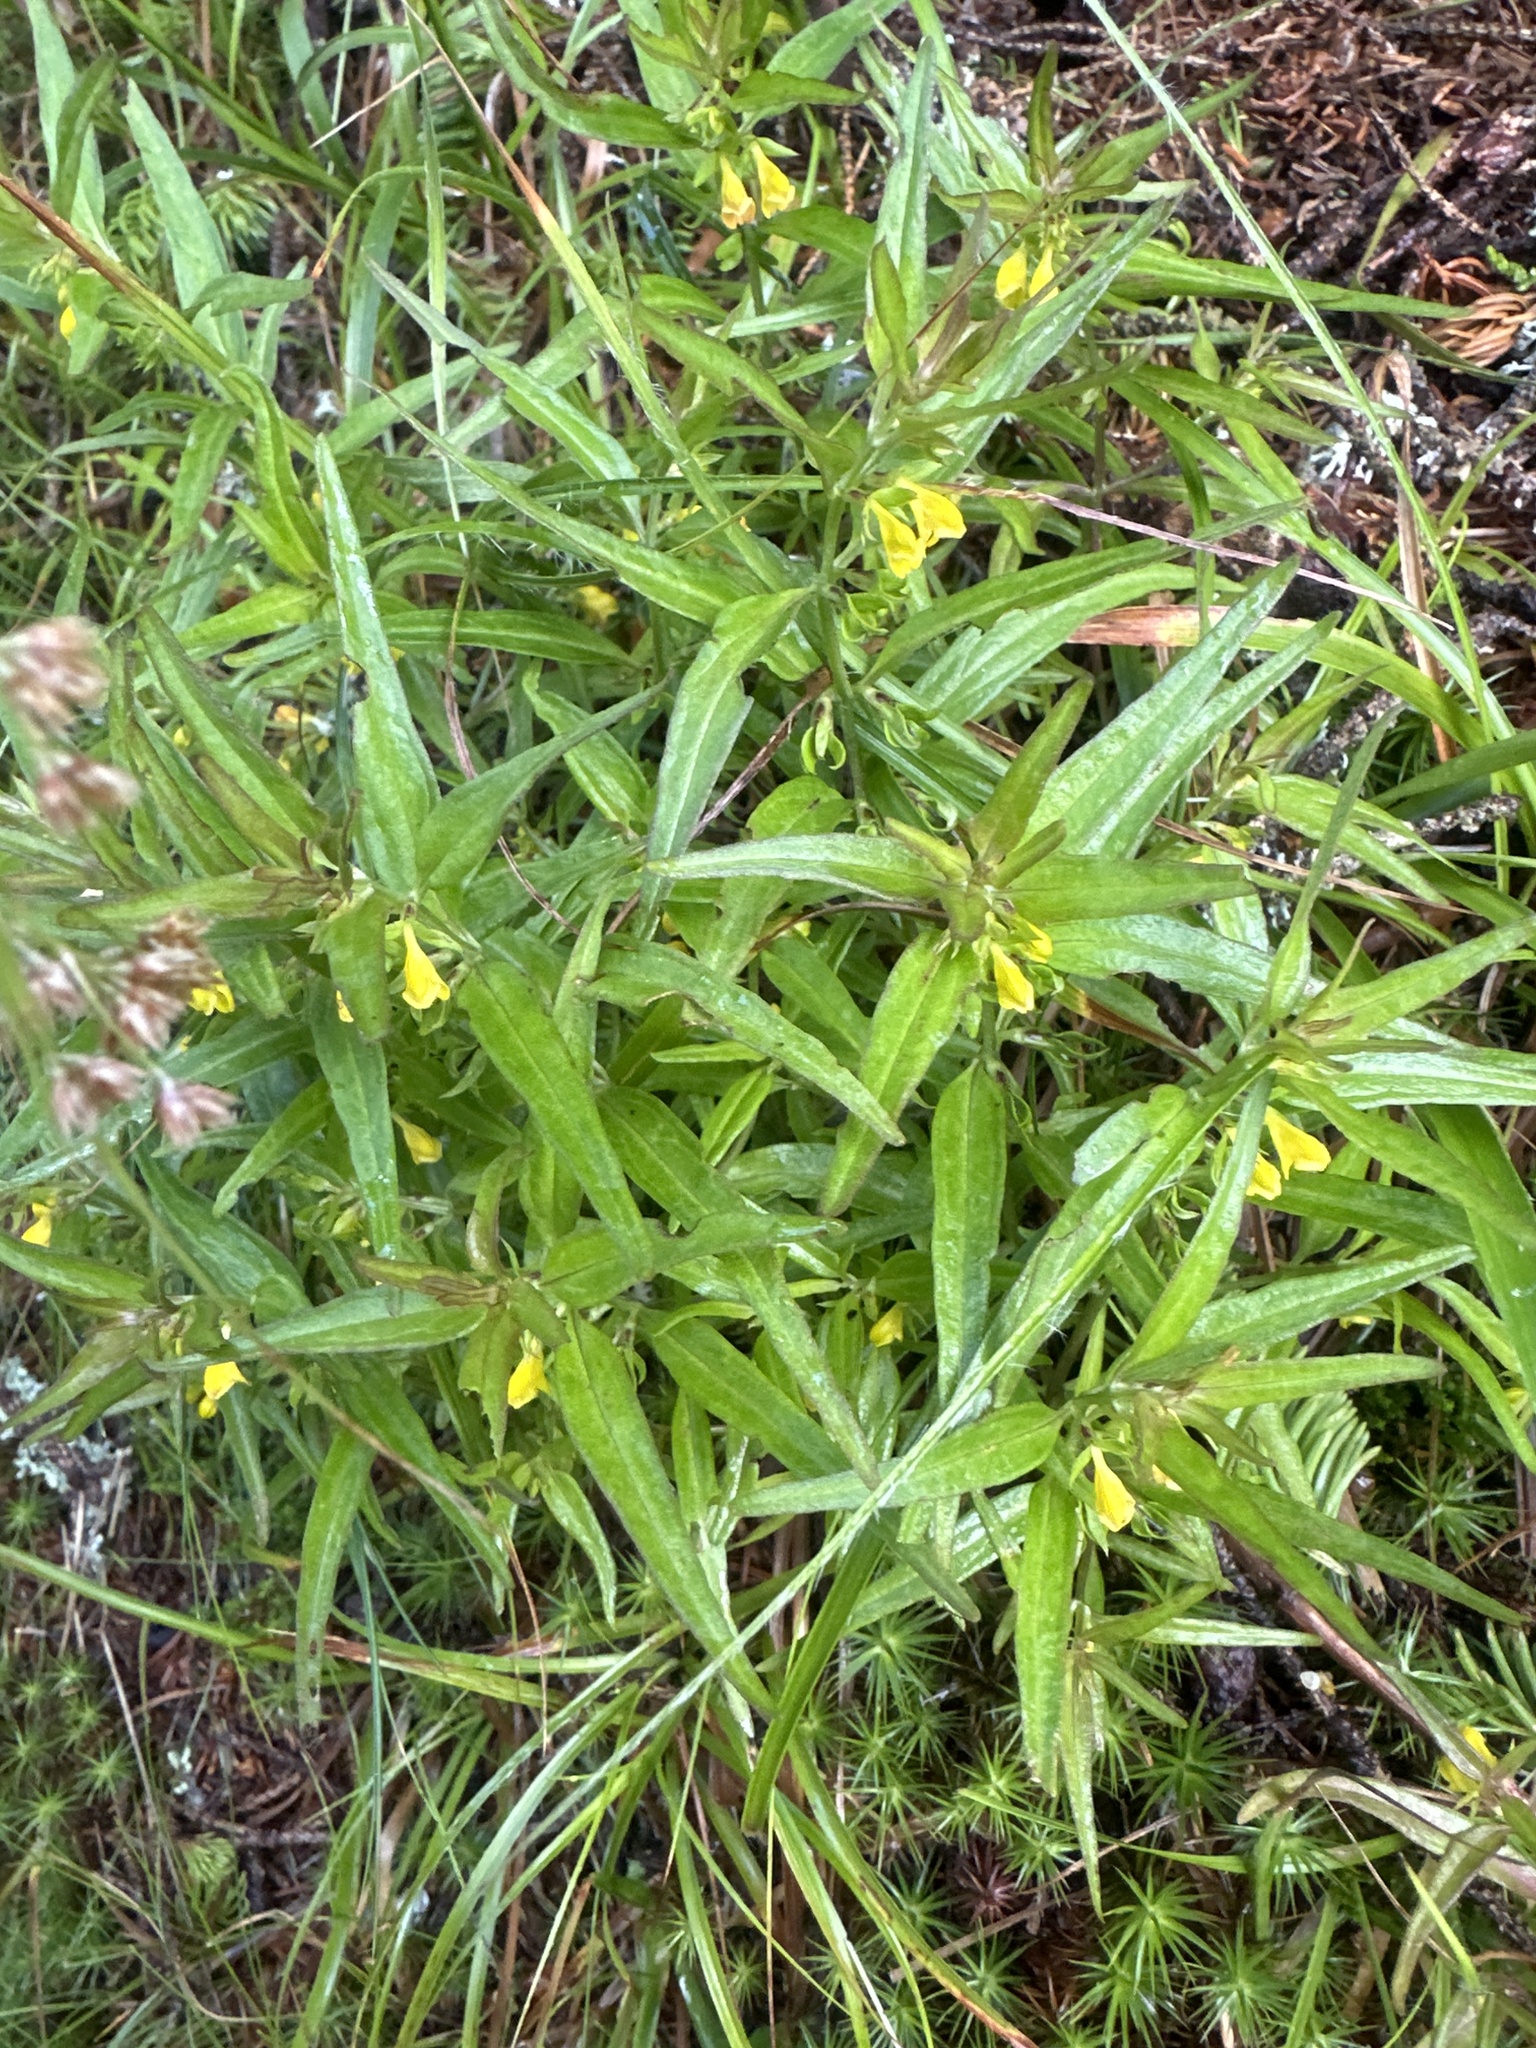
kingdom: Plantae
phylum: Tracheophyta
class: Magnoliopsida
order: Lamiales
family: Orobanchaceae
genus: Melampyrum
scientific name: Melampyrum sylvaticum
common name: Small cow-wheat
